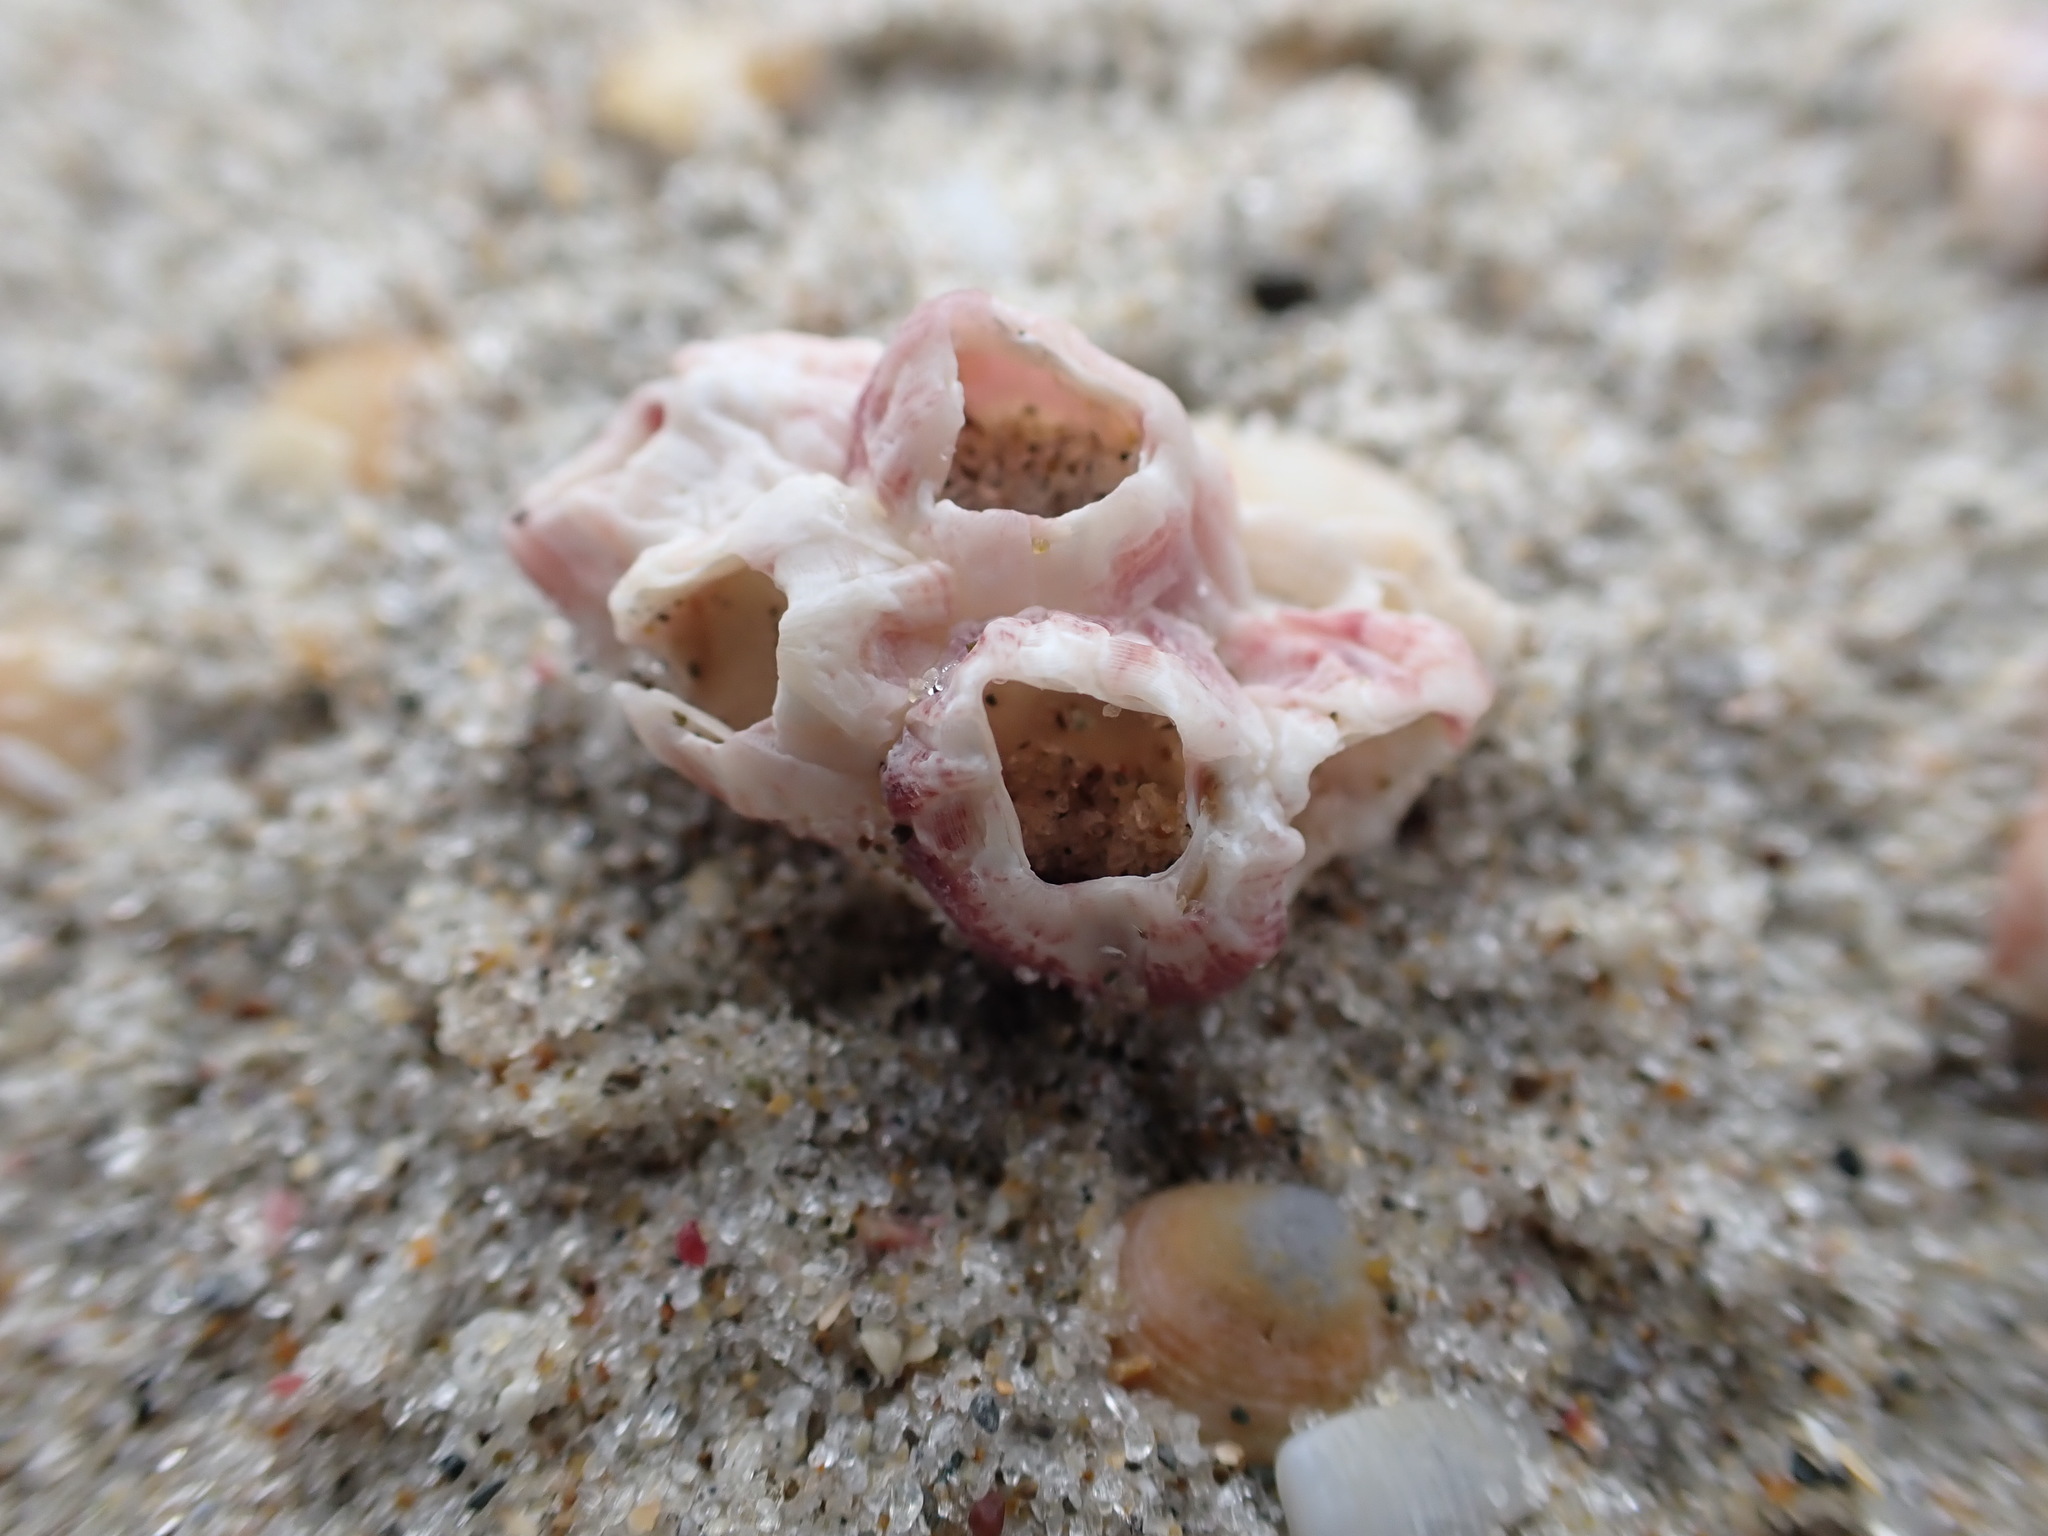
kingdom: Animalia
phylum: Arthropoda
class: Maxillopoda
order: Sessilia
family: Balanidae
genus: Notomegabalanus
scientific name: Notomegabalanus decorus
